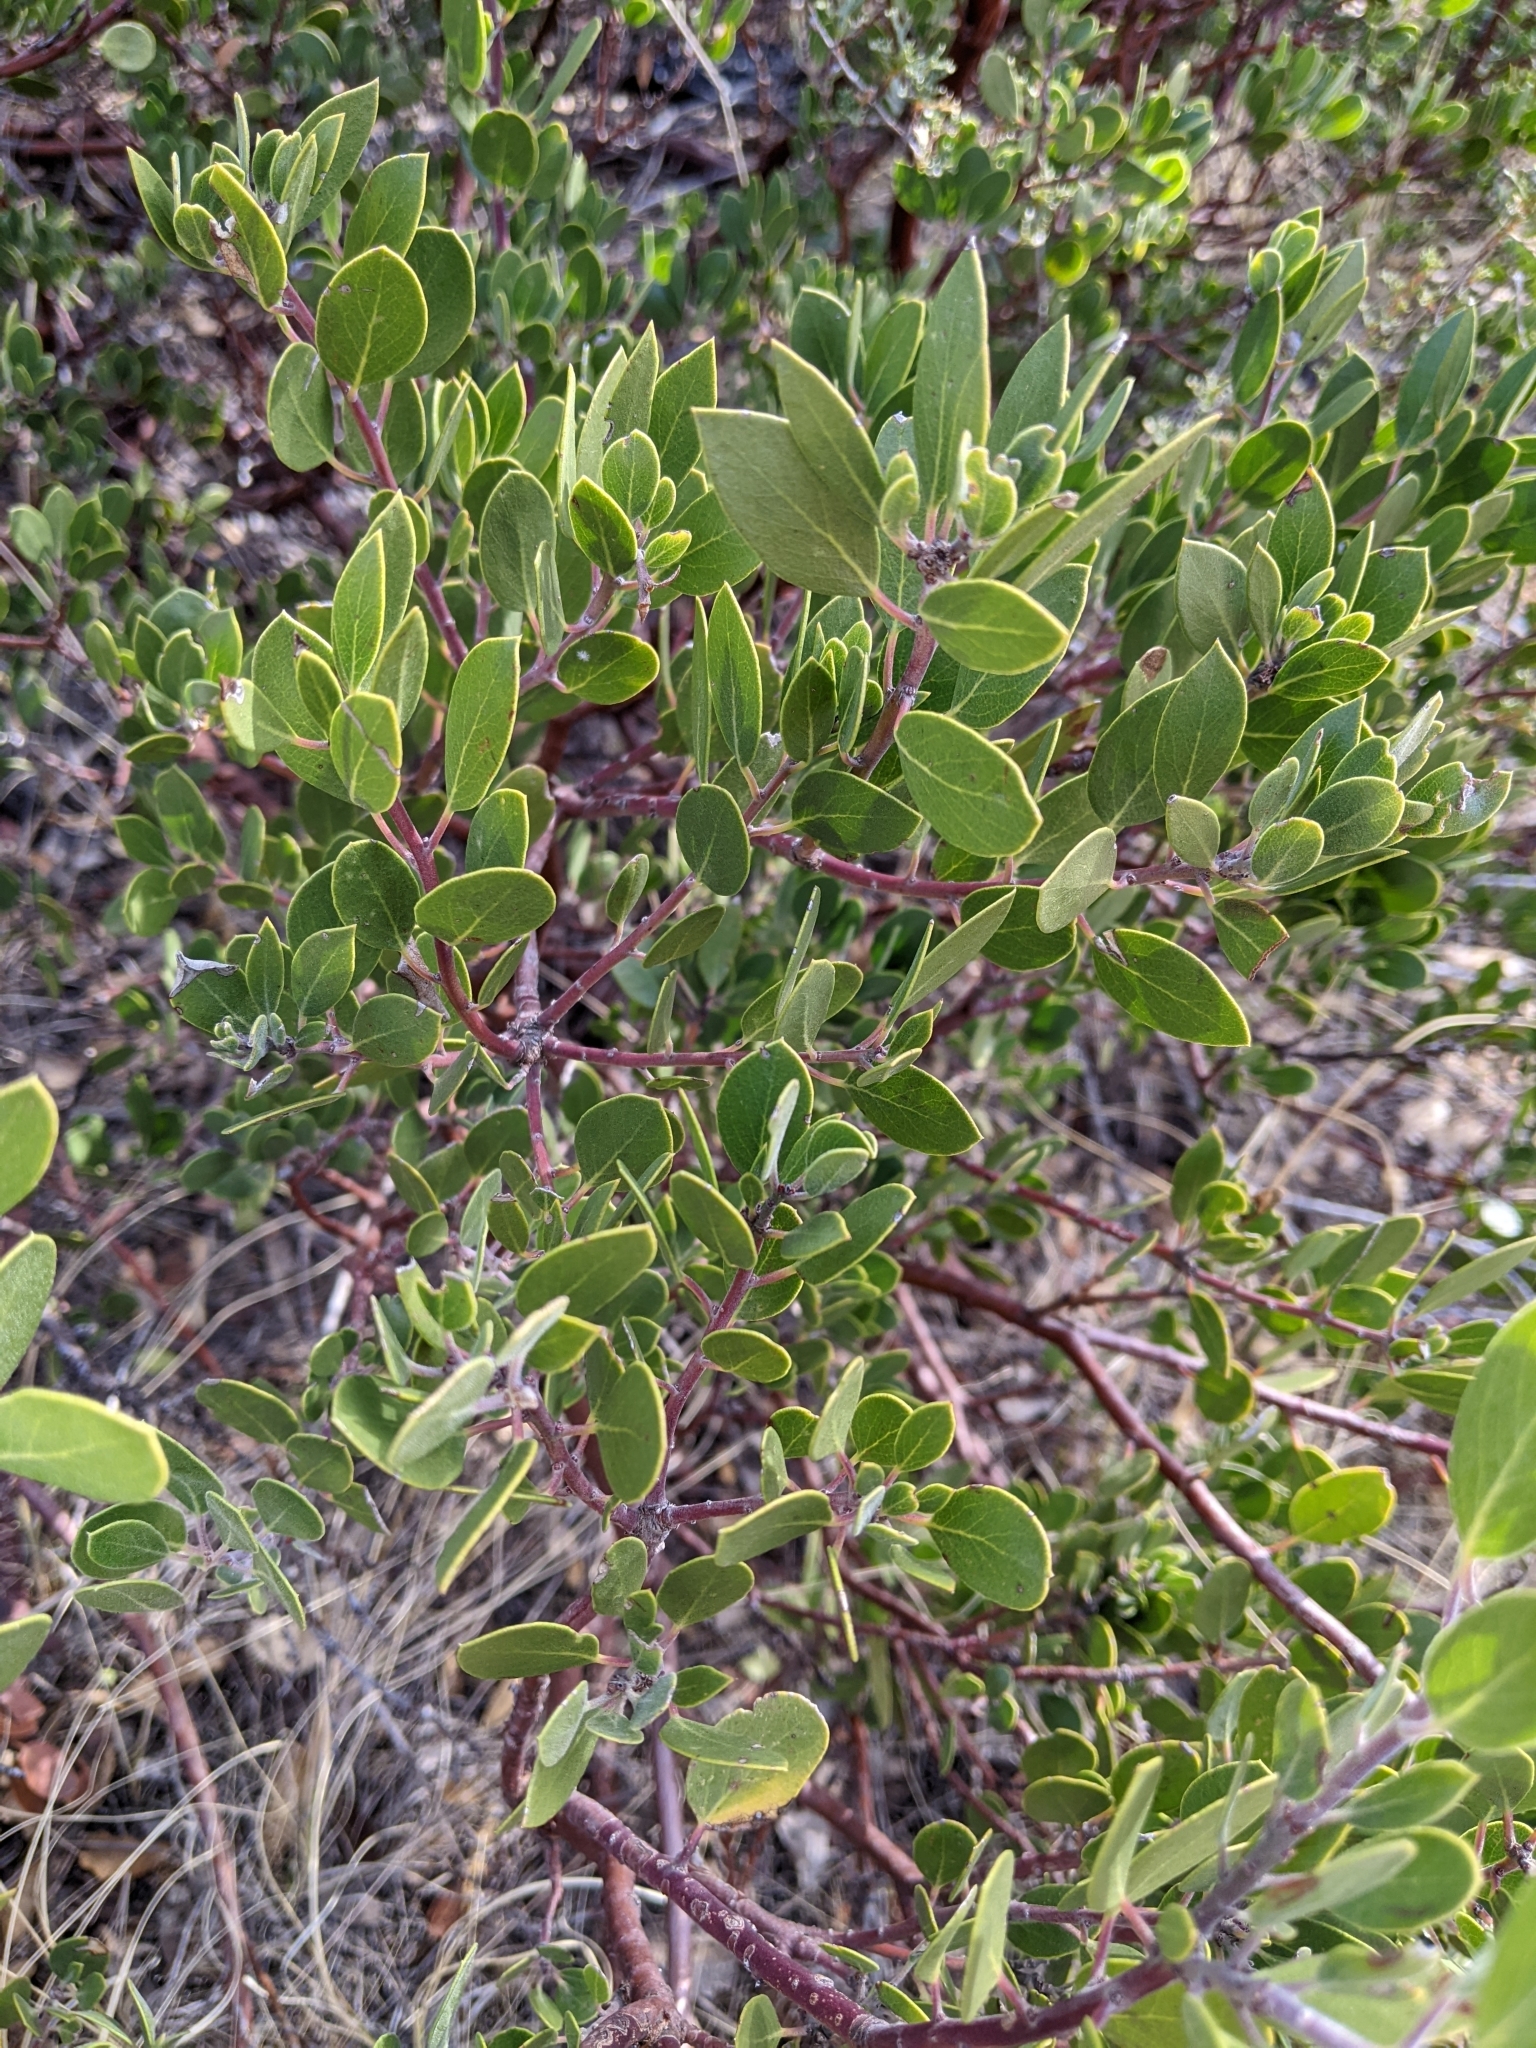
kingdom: Plantae
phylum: Tracheophyta
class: Magnoliopsida
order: Ericales
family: Ericaceae
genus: Arctostaphylos
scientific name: Arctostaphylos pungens
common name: Mexican manzanita
